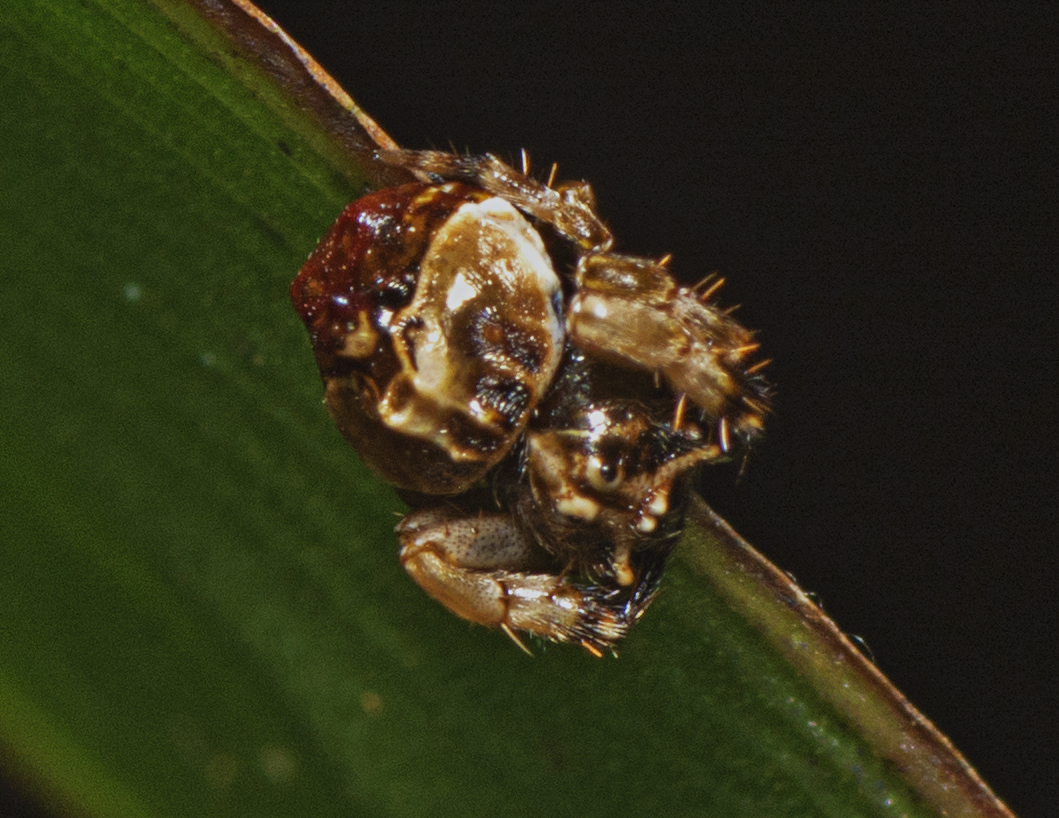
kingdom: Animalia
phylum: Arthropoda
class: Arachnida
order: Araneae
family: Arkyidae
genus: Arkys
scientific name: Arkys tuberculatus
